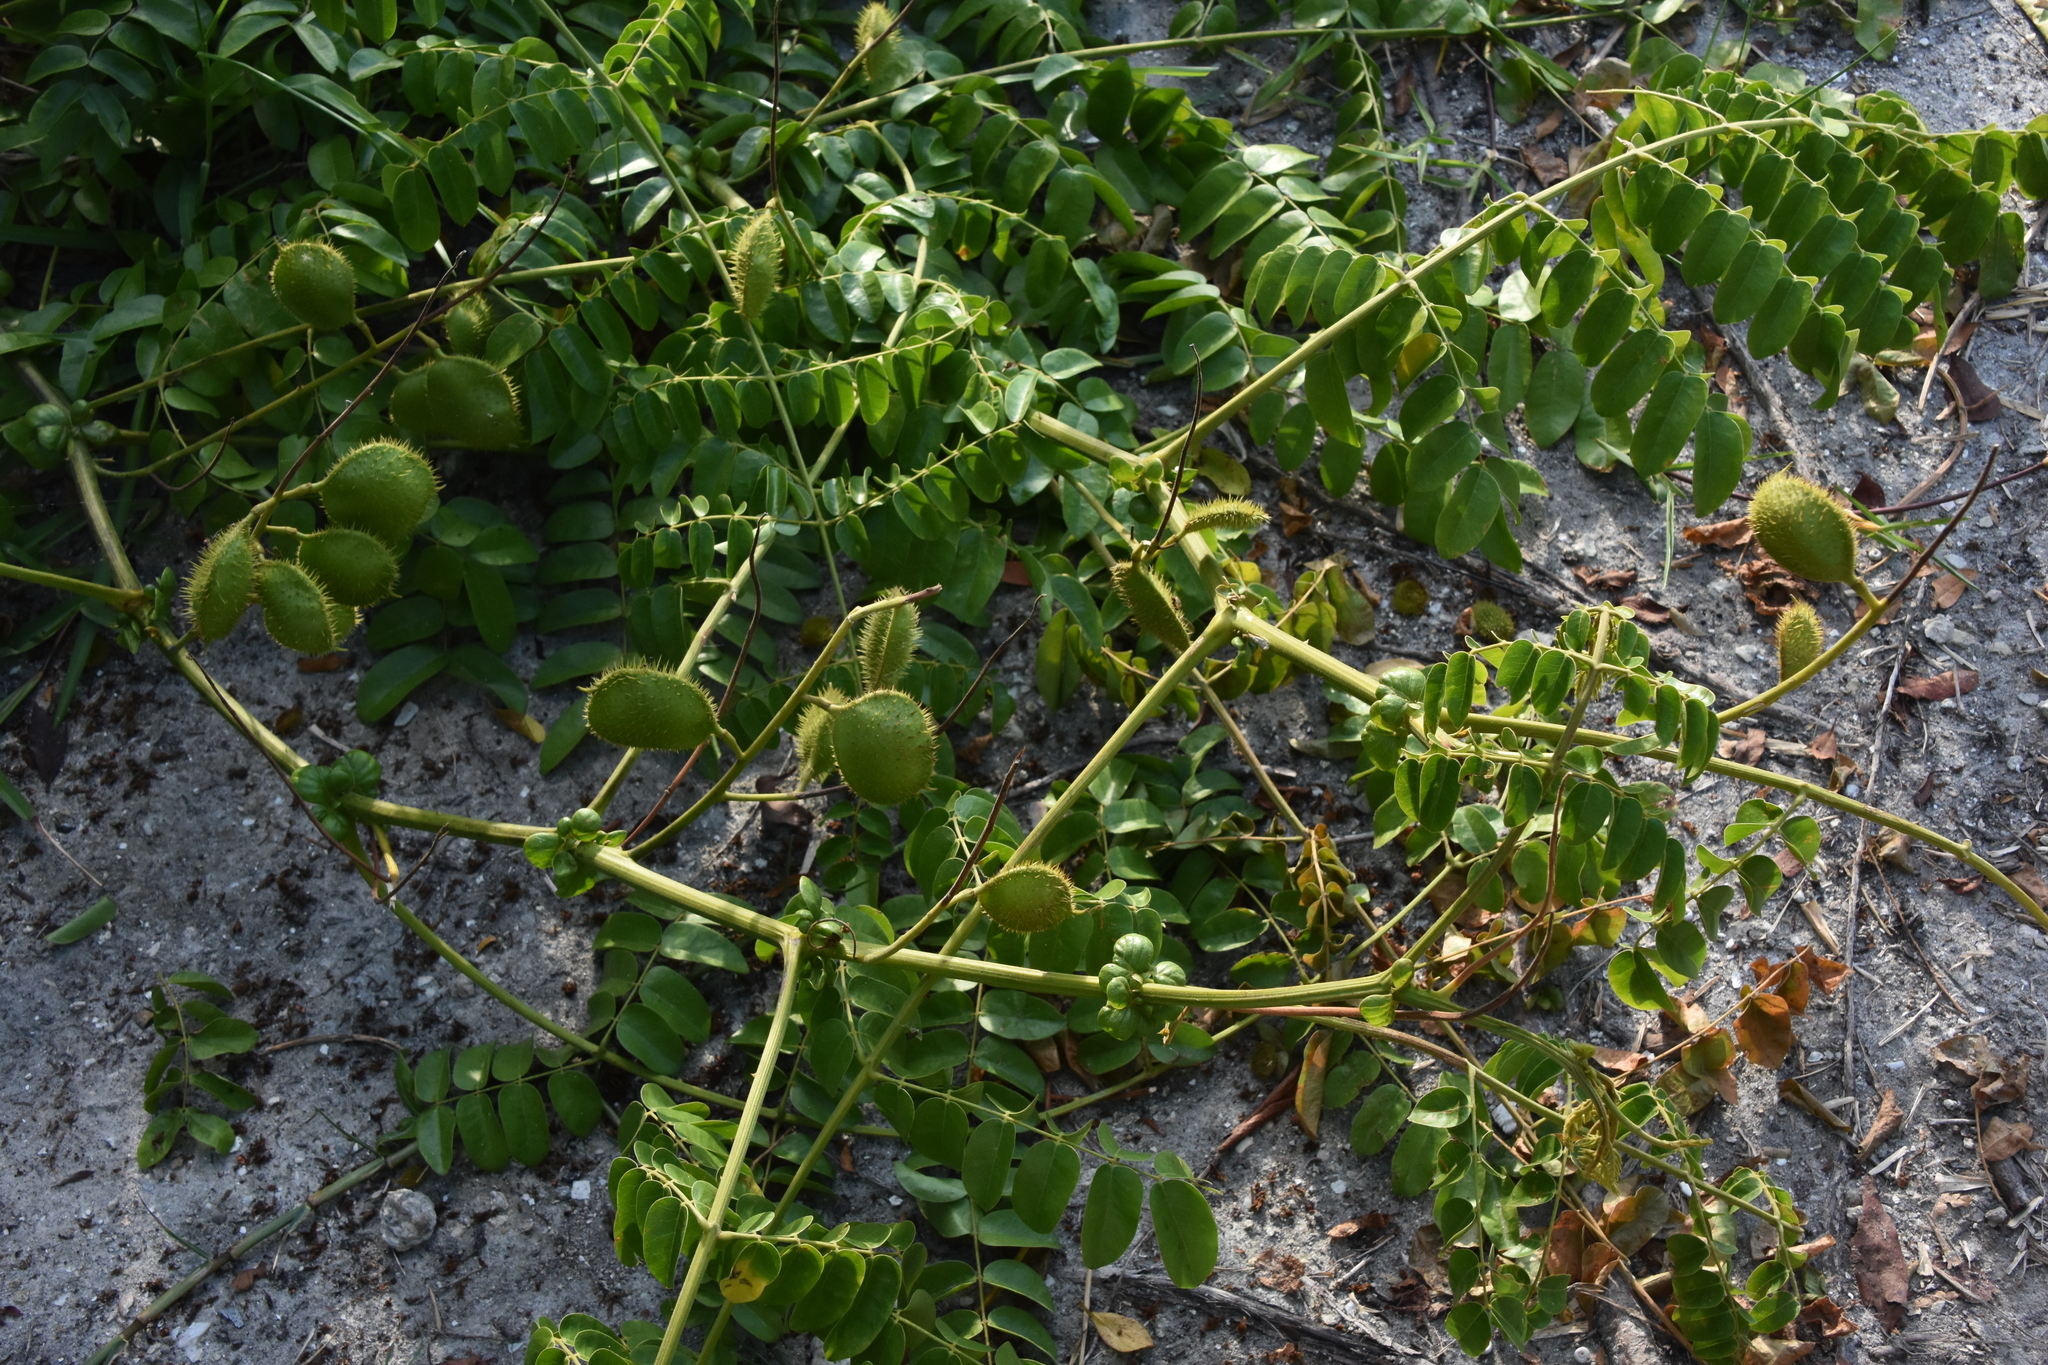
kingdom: Plantae
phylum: Tracheophyta
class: Magnoliopsida
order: Fabales
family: Fabaceae
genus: Guilandina
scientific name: Guilandina bonduc
